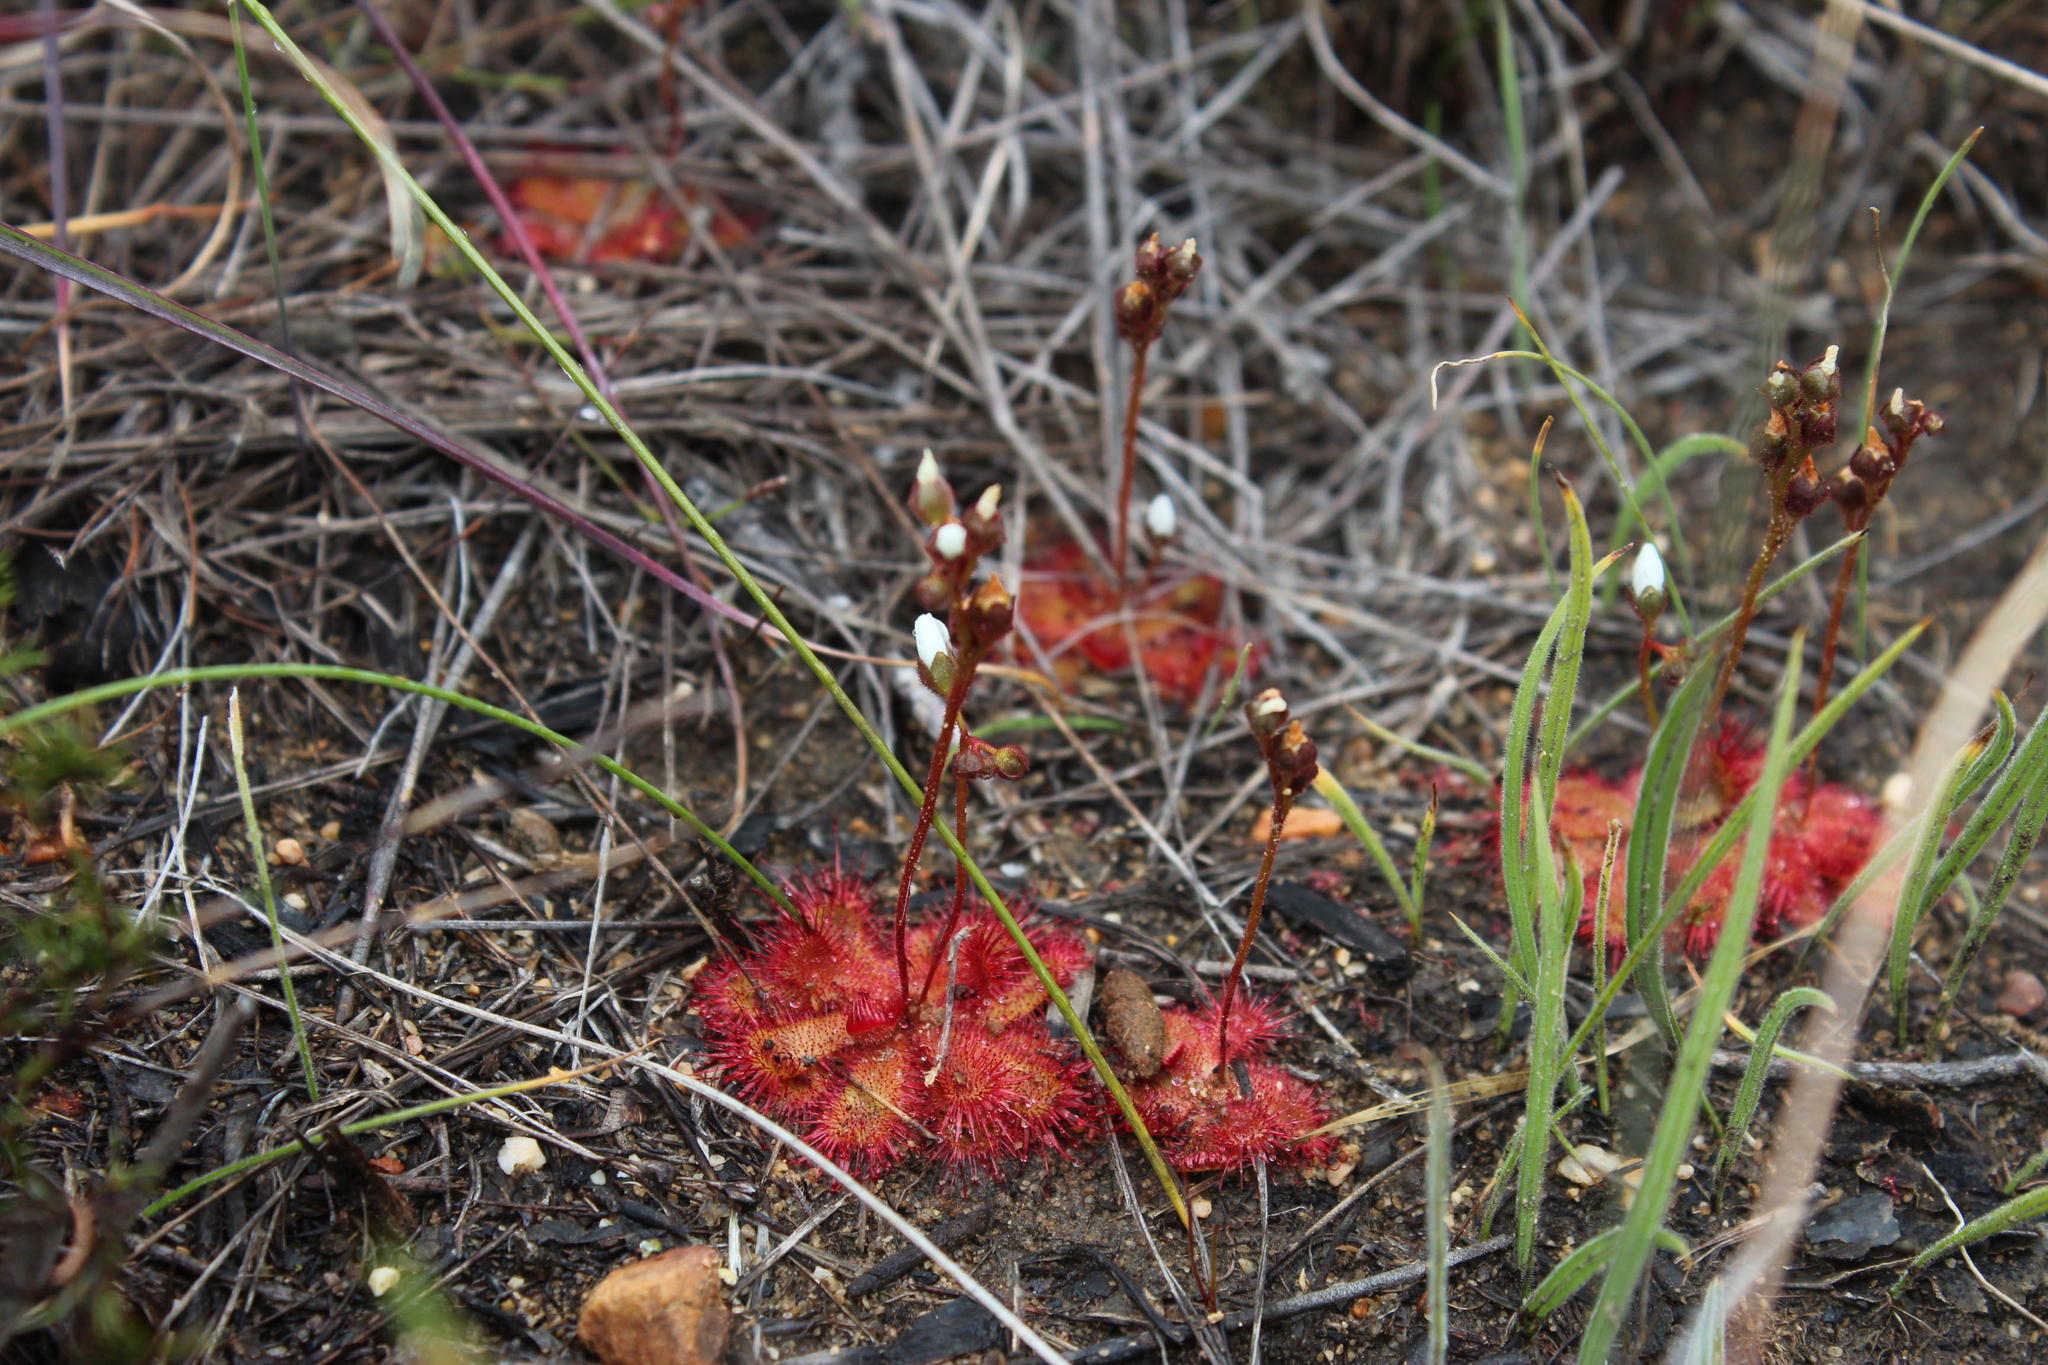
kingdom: Plantae
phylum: Tracheophyta
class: Magnoliopsida
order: Caryophyllales
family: Droseraceae
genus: Drosera
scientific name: Drosera trinervia
